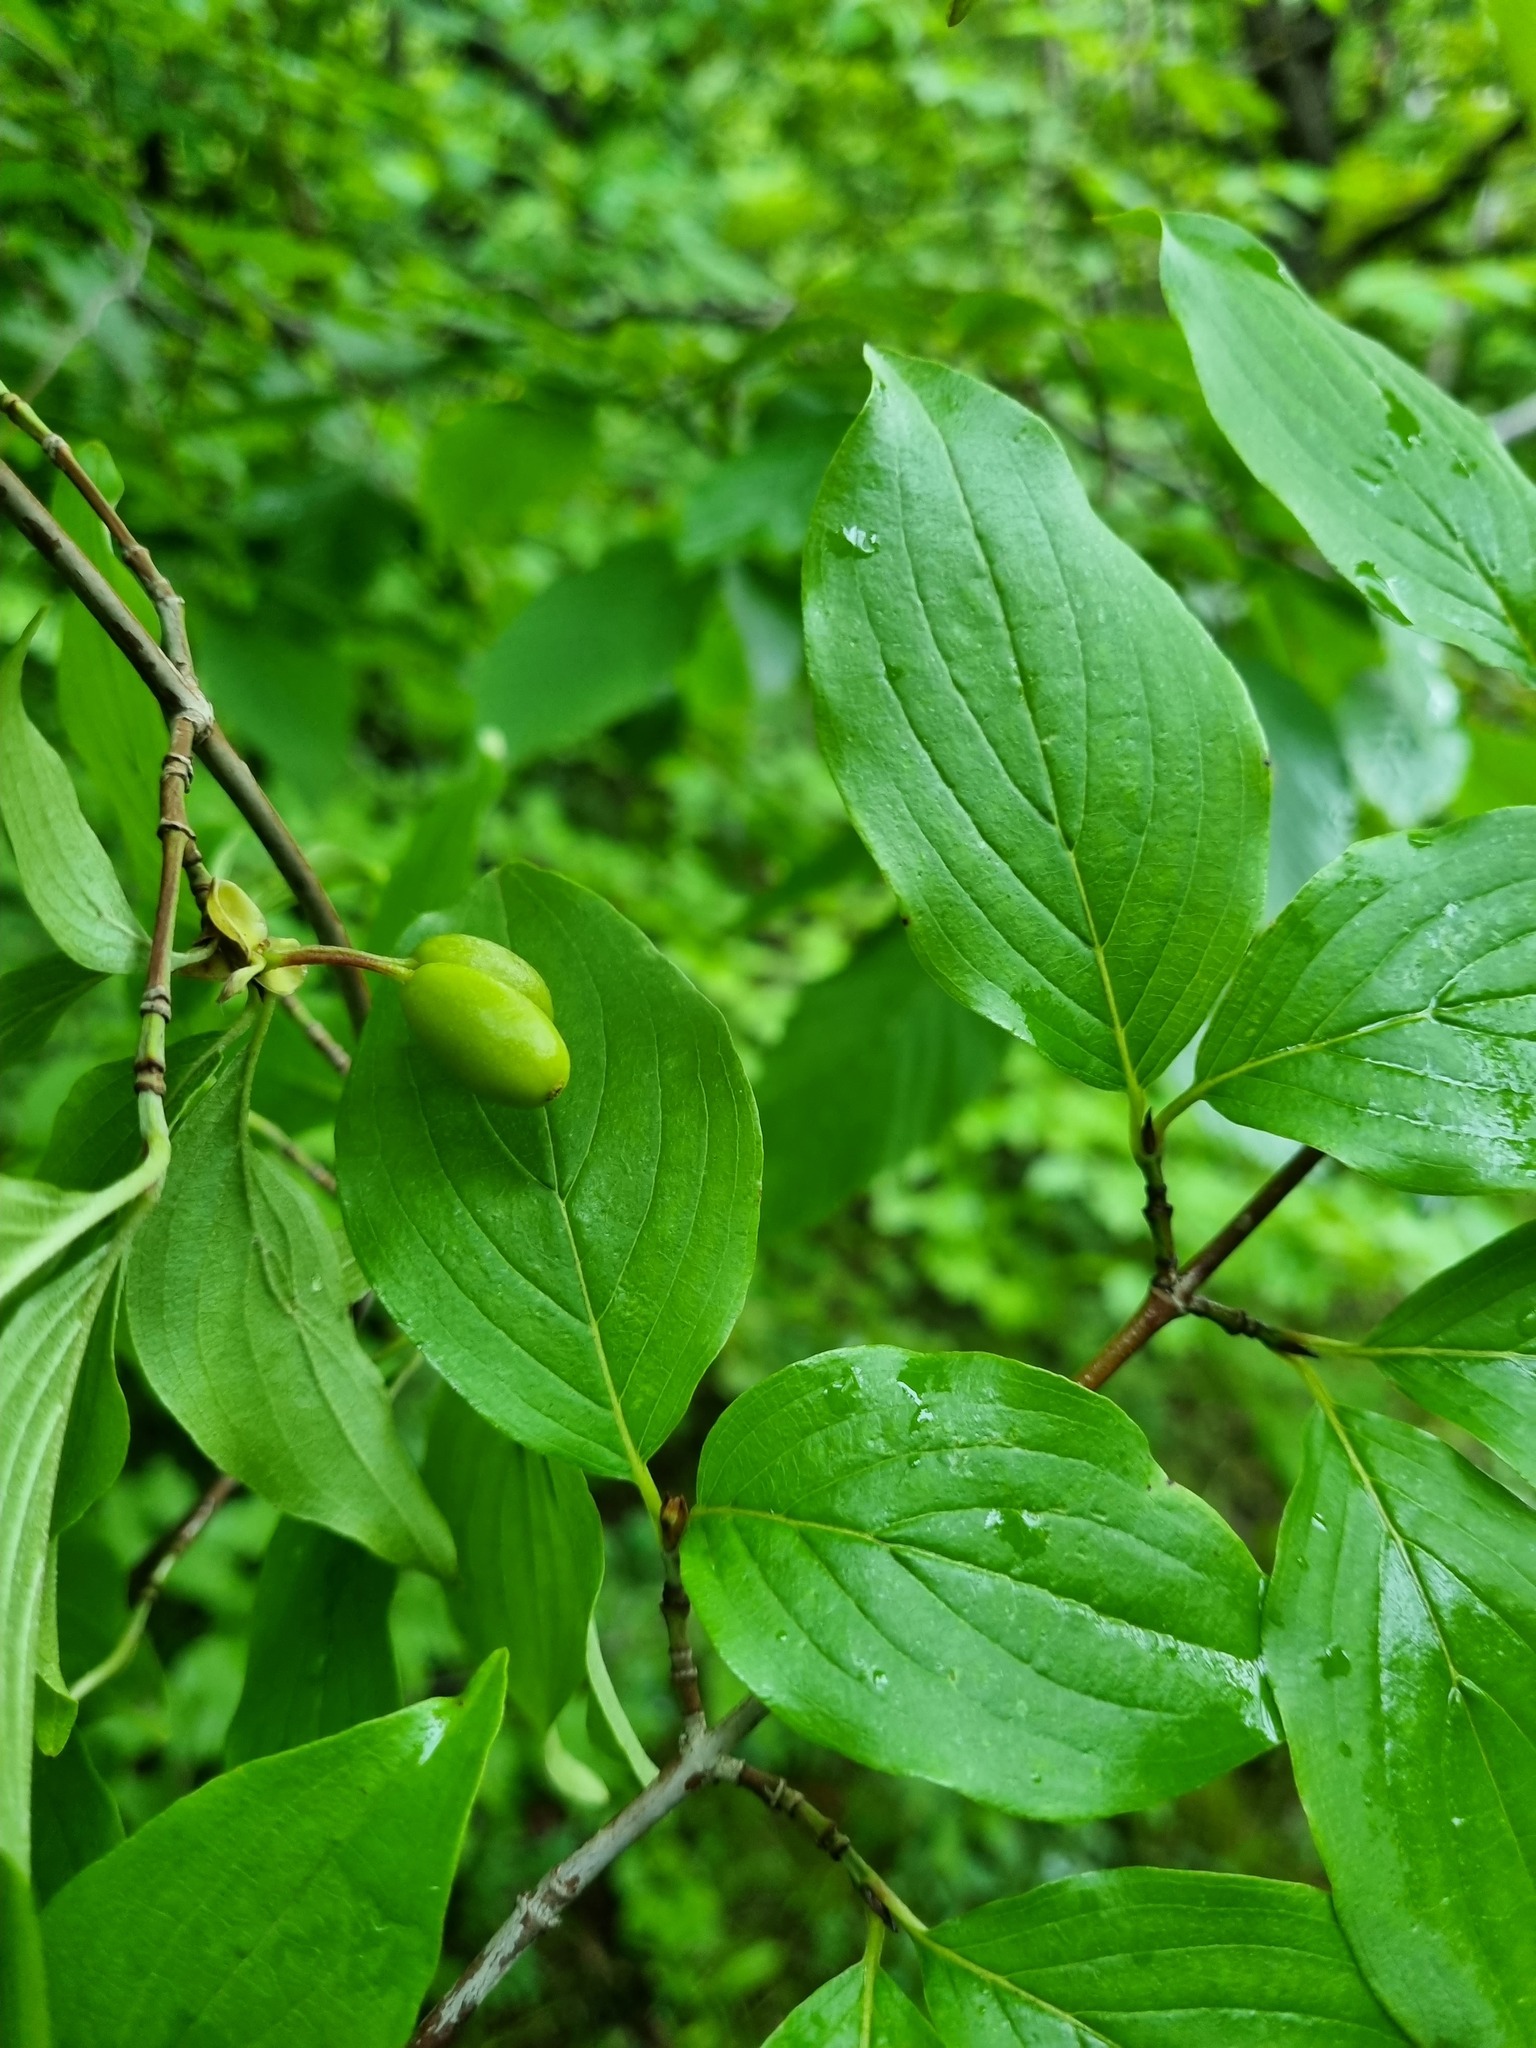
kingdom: Plantae
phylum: Tracheophyta
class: Magnoliopsida
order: Cornales
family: Cornaceae
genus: Cornus
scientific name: Cornus mas
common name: Cornelian-cherry
